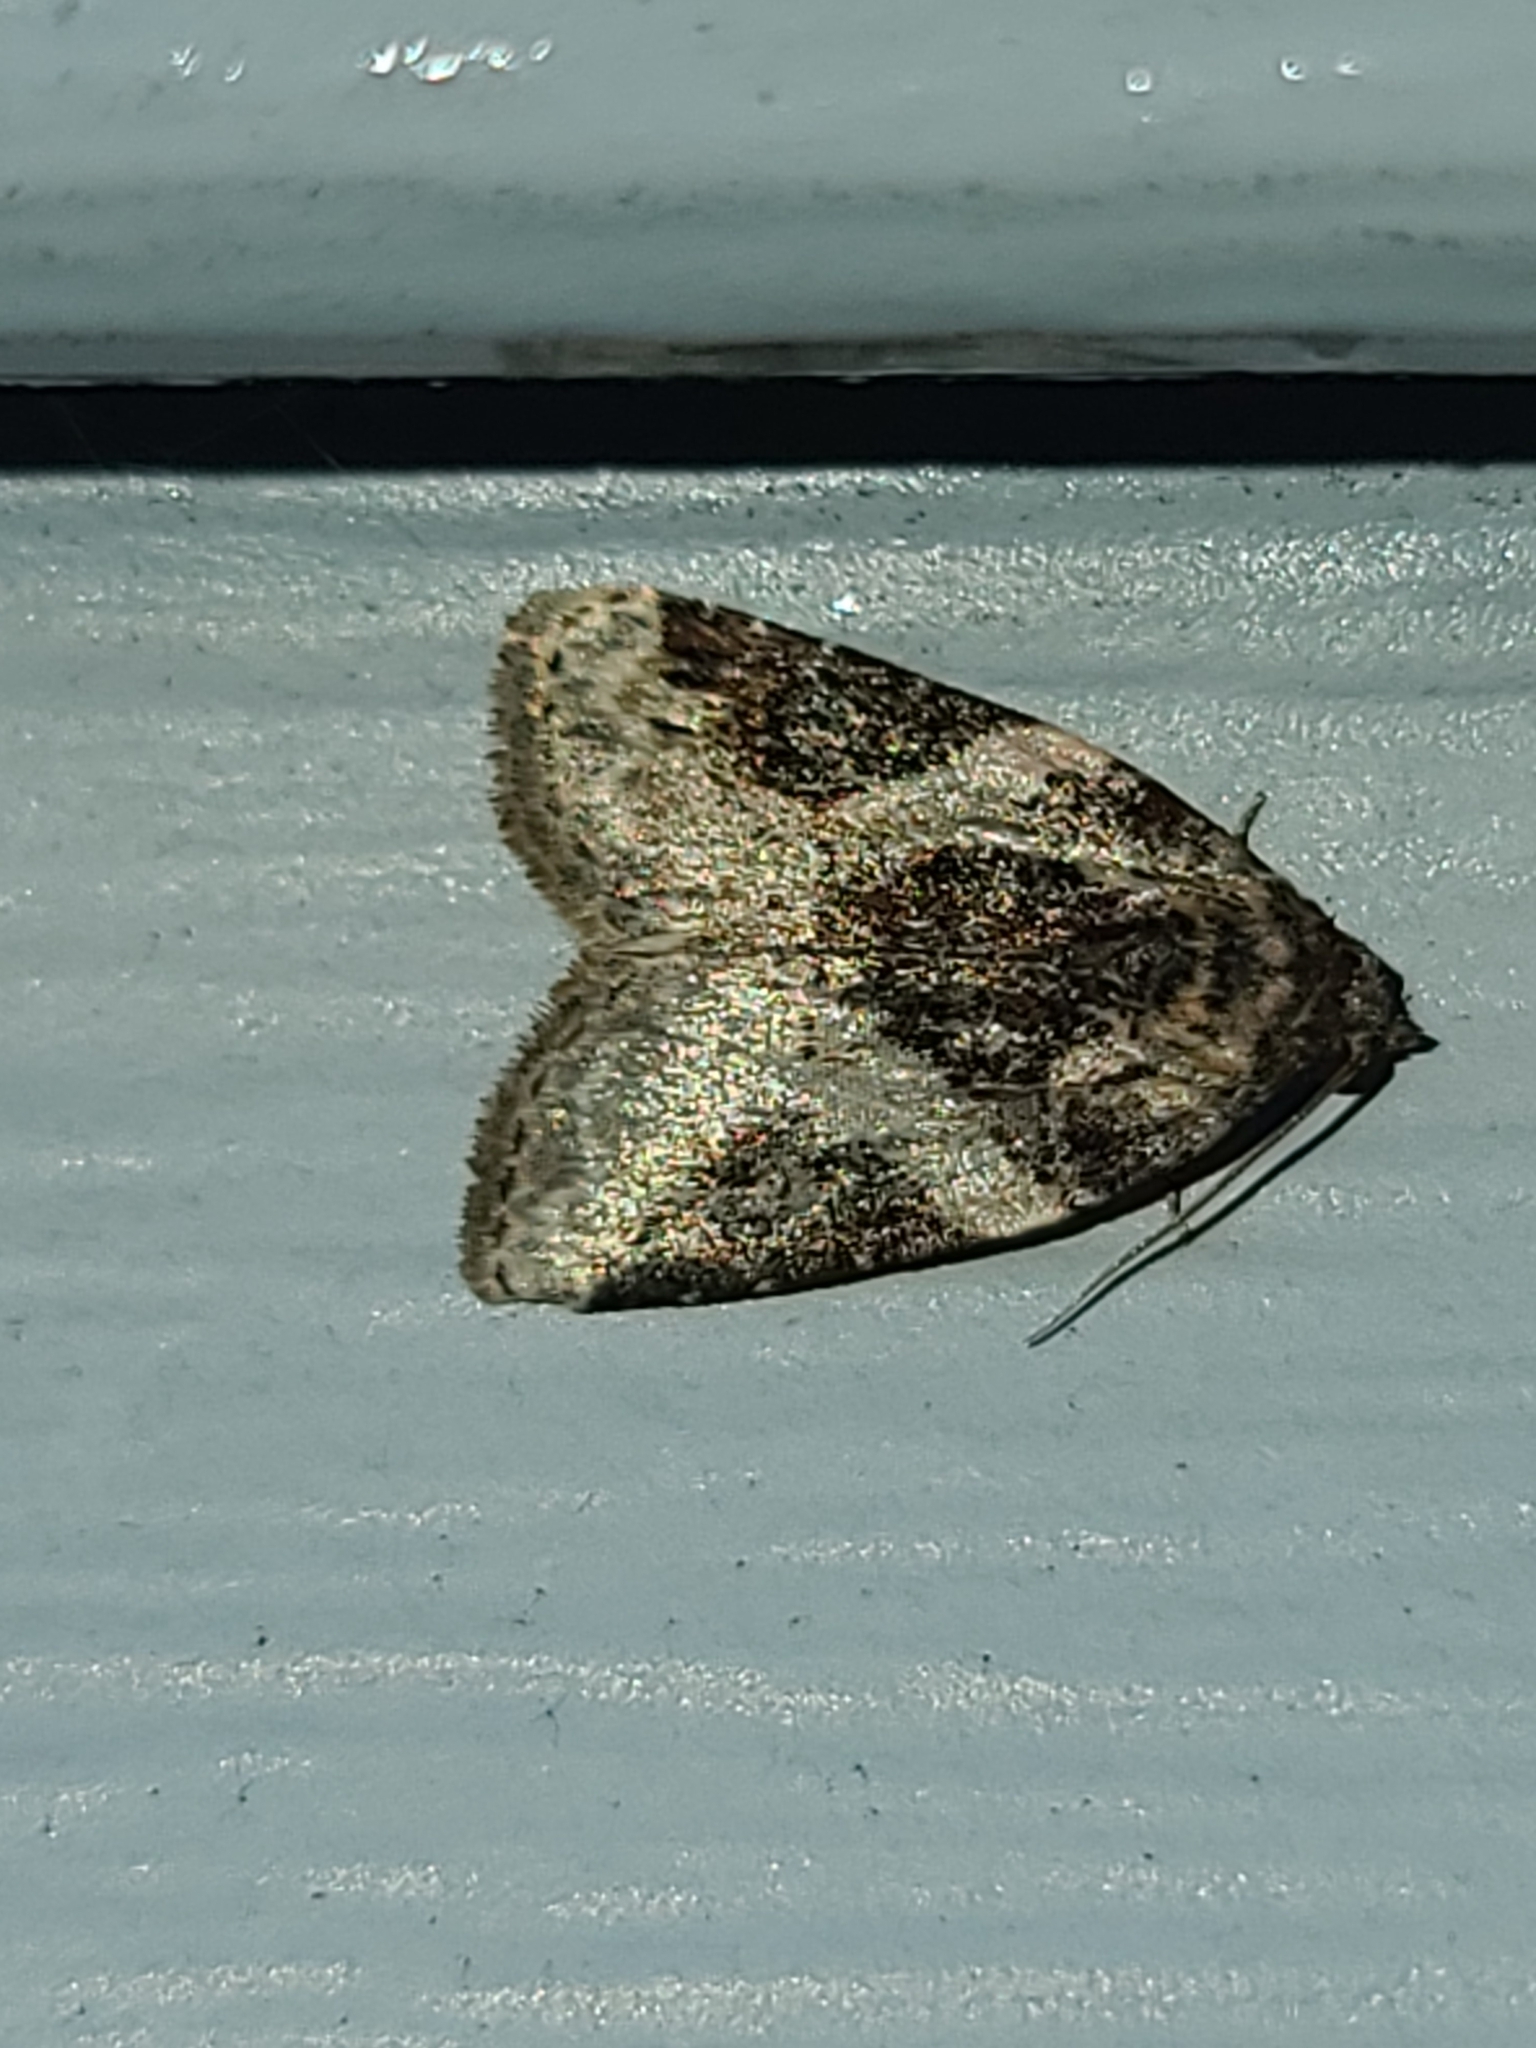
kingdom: Animalia
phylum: Arthropoda
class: Insecta
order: Lepidoptera
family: Noctuidae
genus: Pseudeustrotia
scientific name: Pseudeustrotia carneola
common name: Pink-barred lithacodia moth
